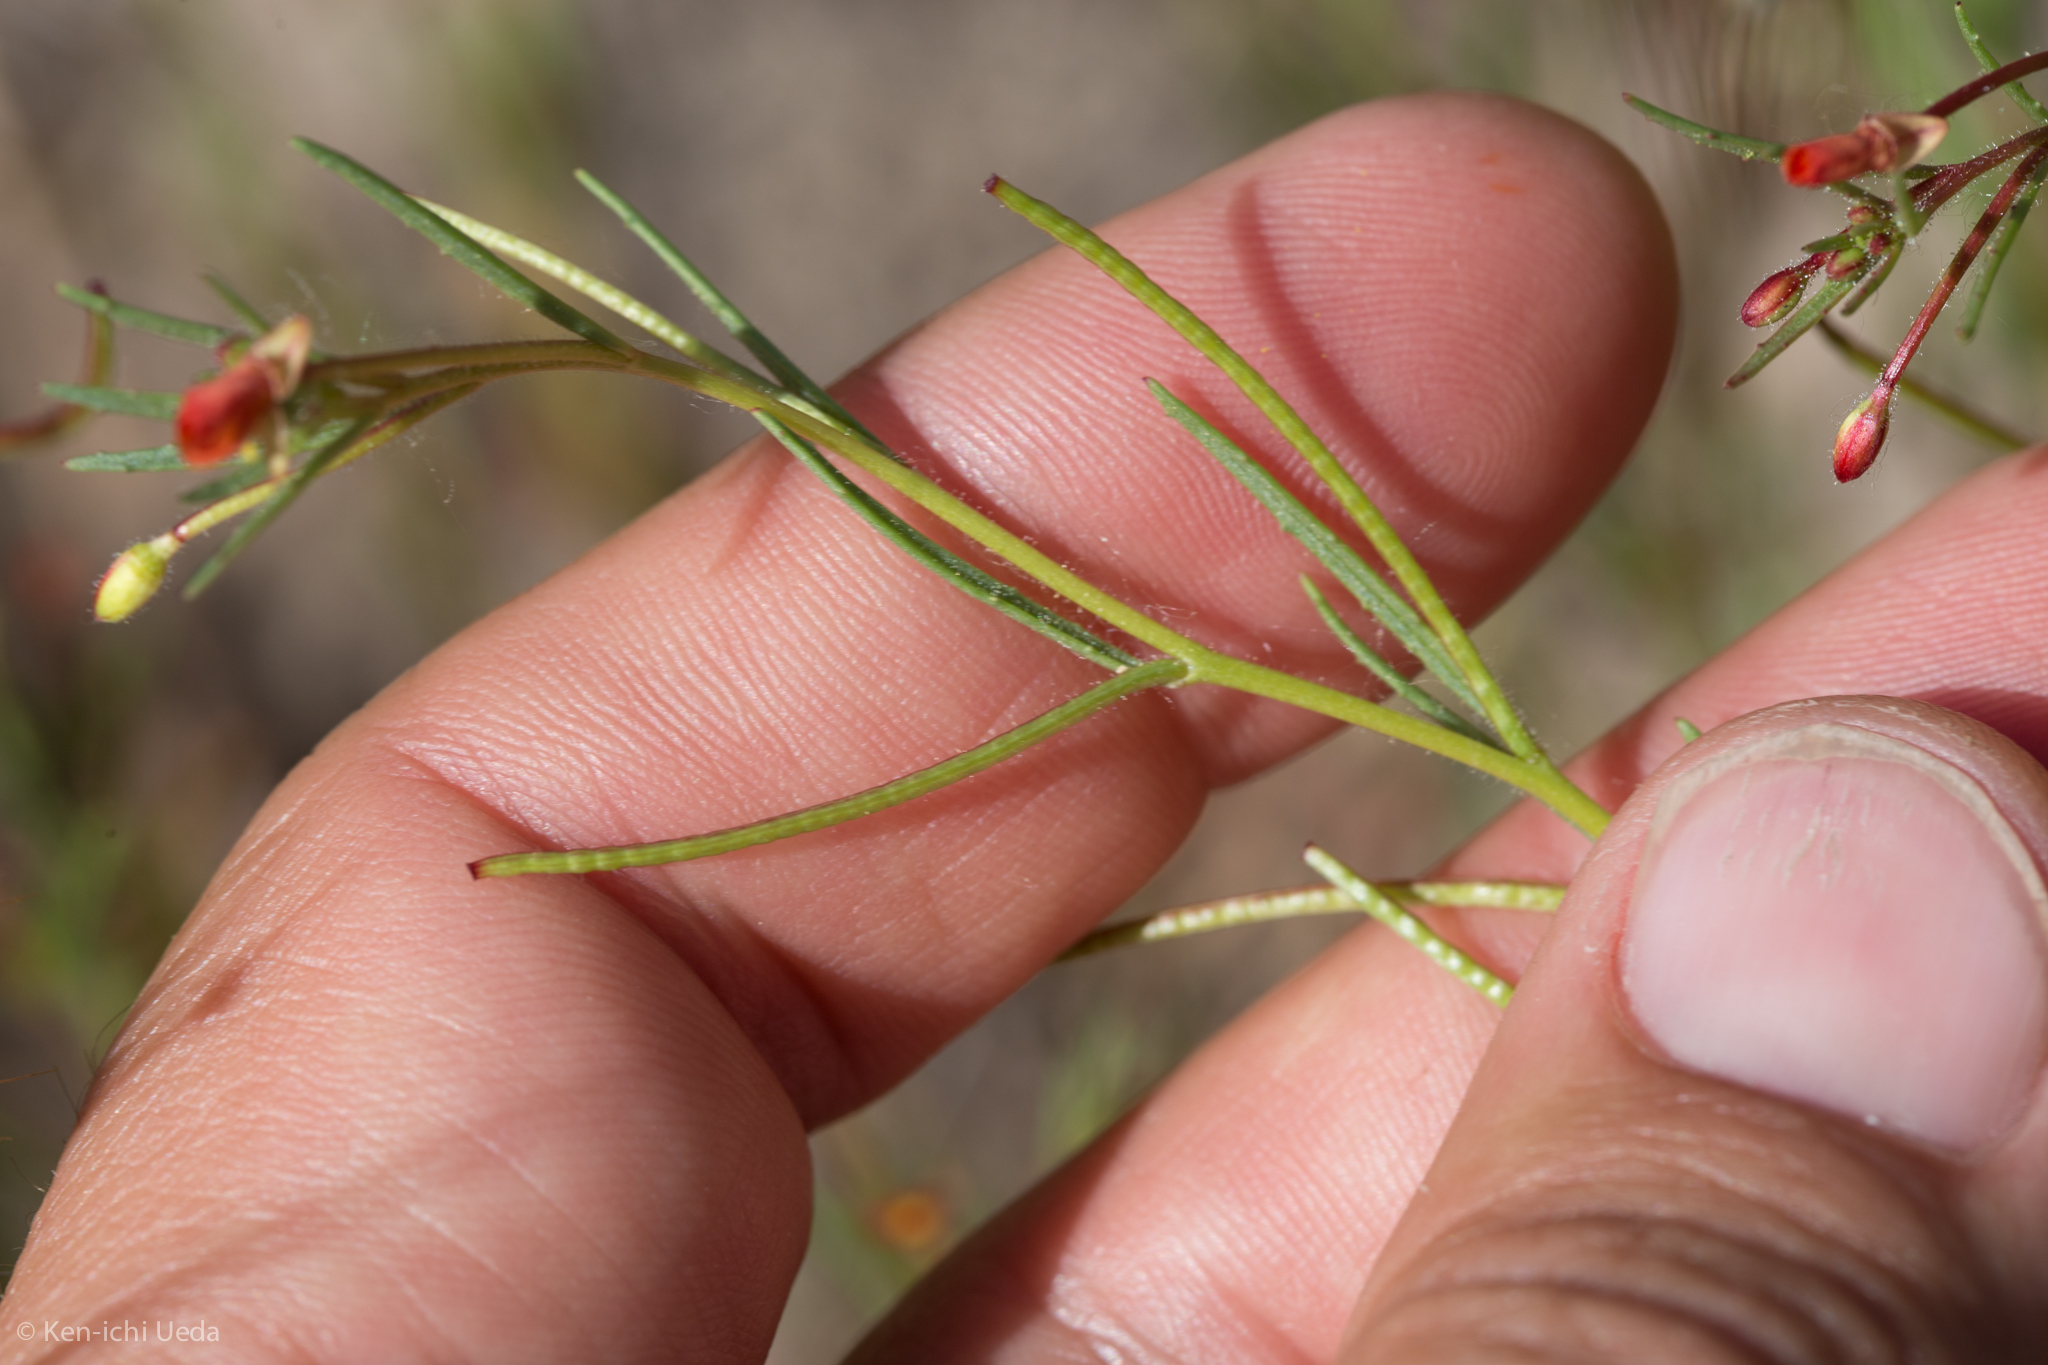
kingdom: Plantae
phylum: Tracheophyta
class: Magnoliopsida
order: Myrtales
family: Onagraceae
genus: Camissonia
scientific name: Camissonia contorta
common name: Contorted suncup
